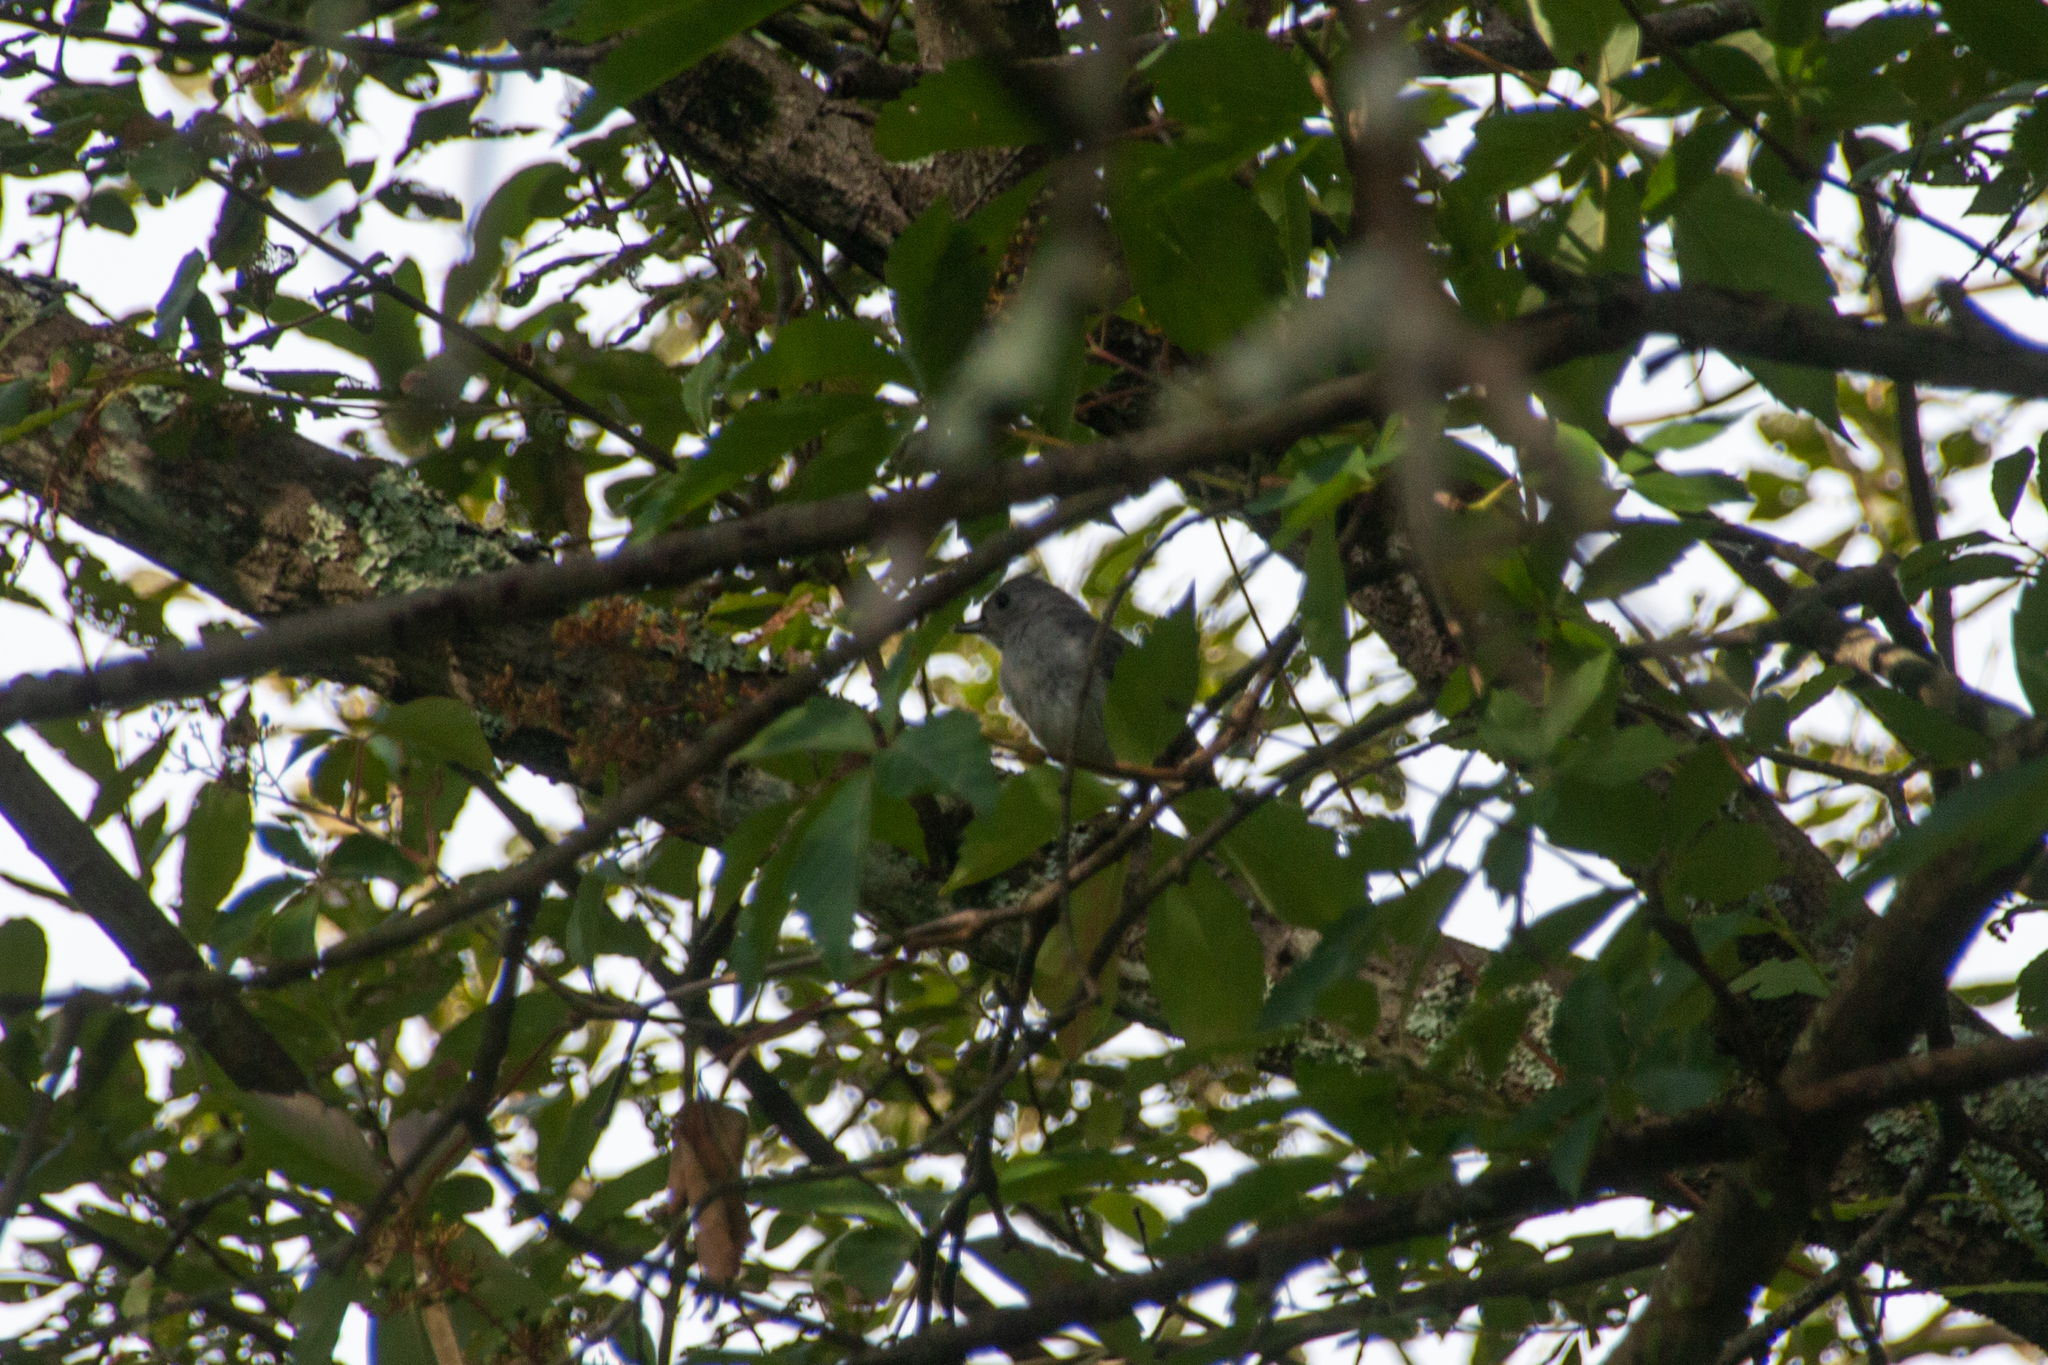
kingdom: Animalia
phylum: Chordata
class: Aves
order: Passeriformes
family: Paridae
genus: Baeolophus
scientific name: Baeolophus bicolor
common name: Tufted titmouse
